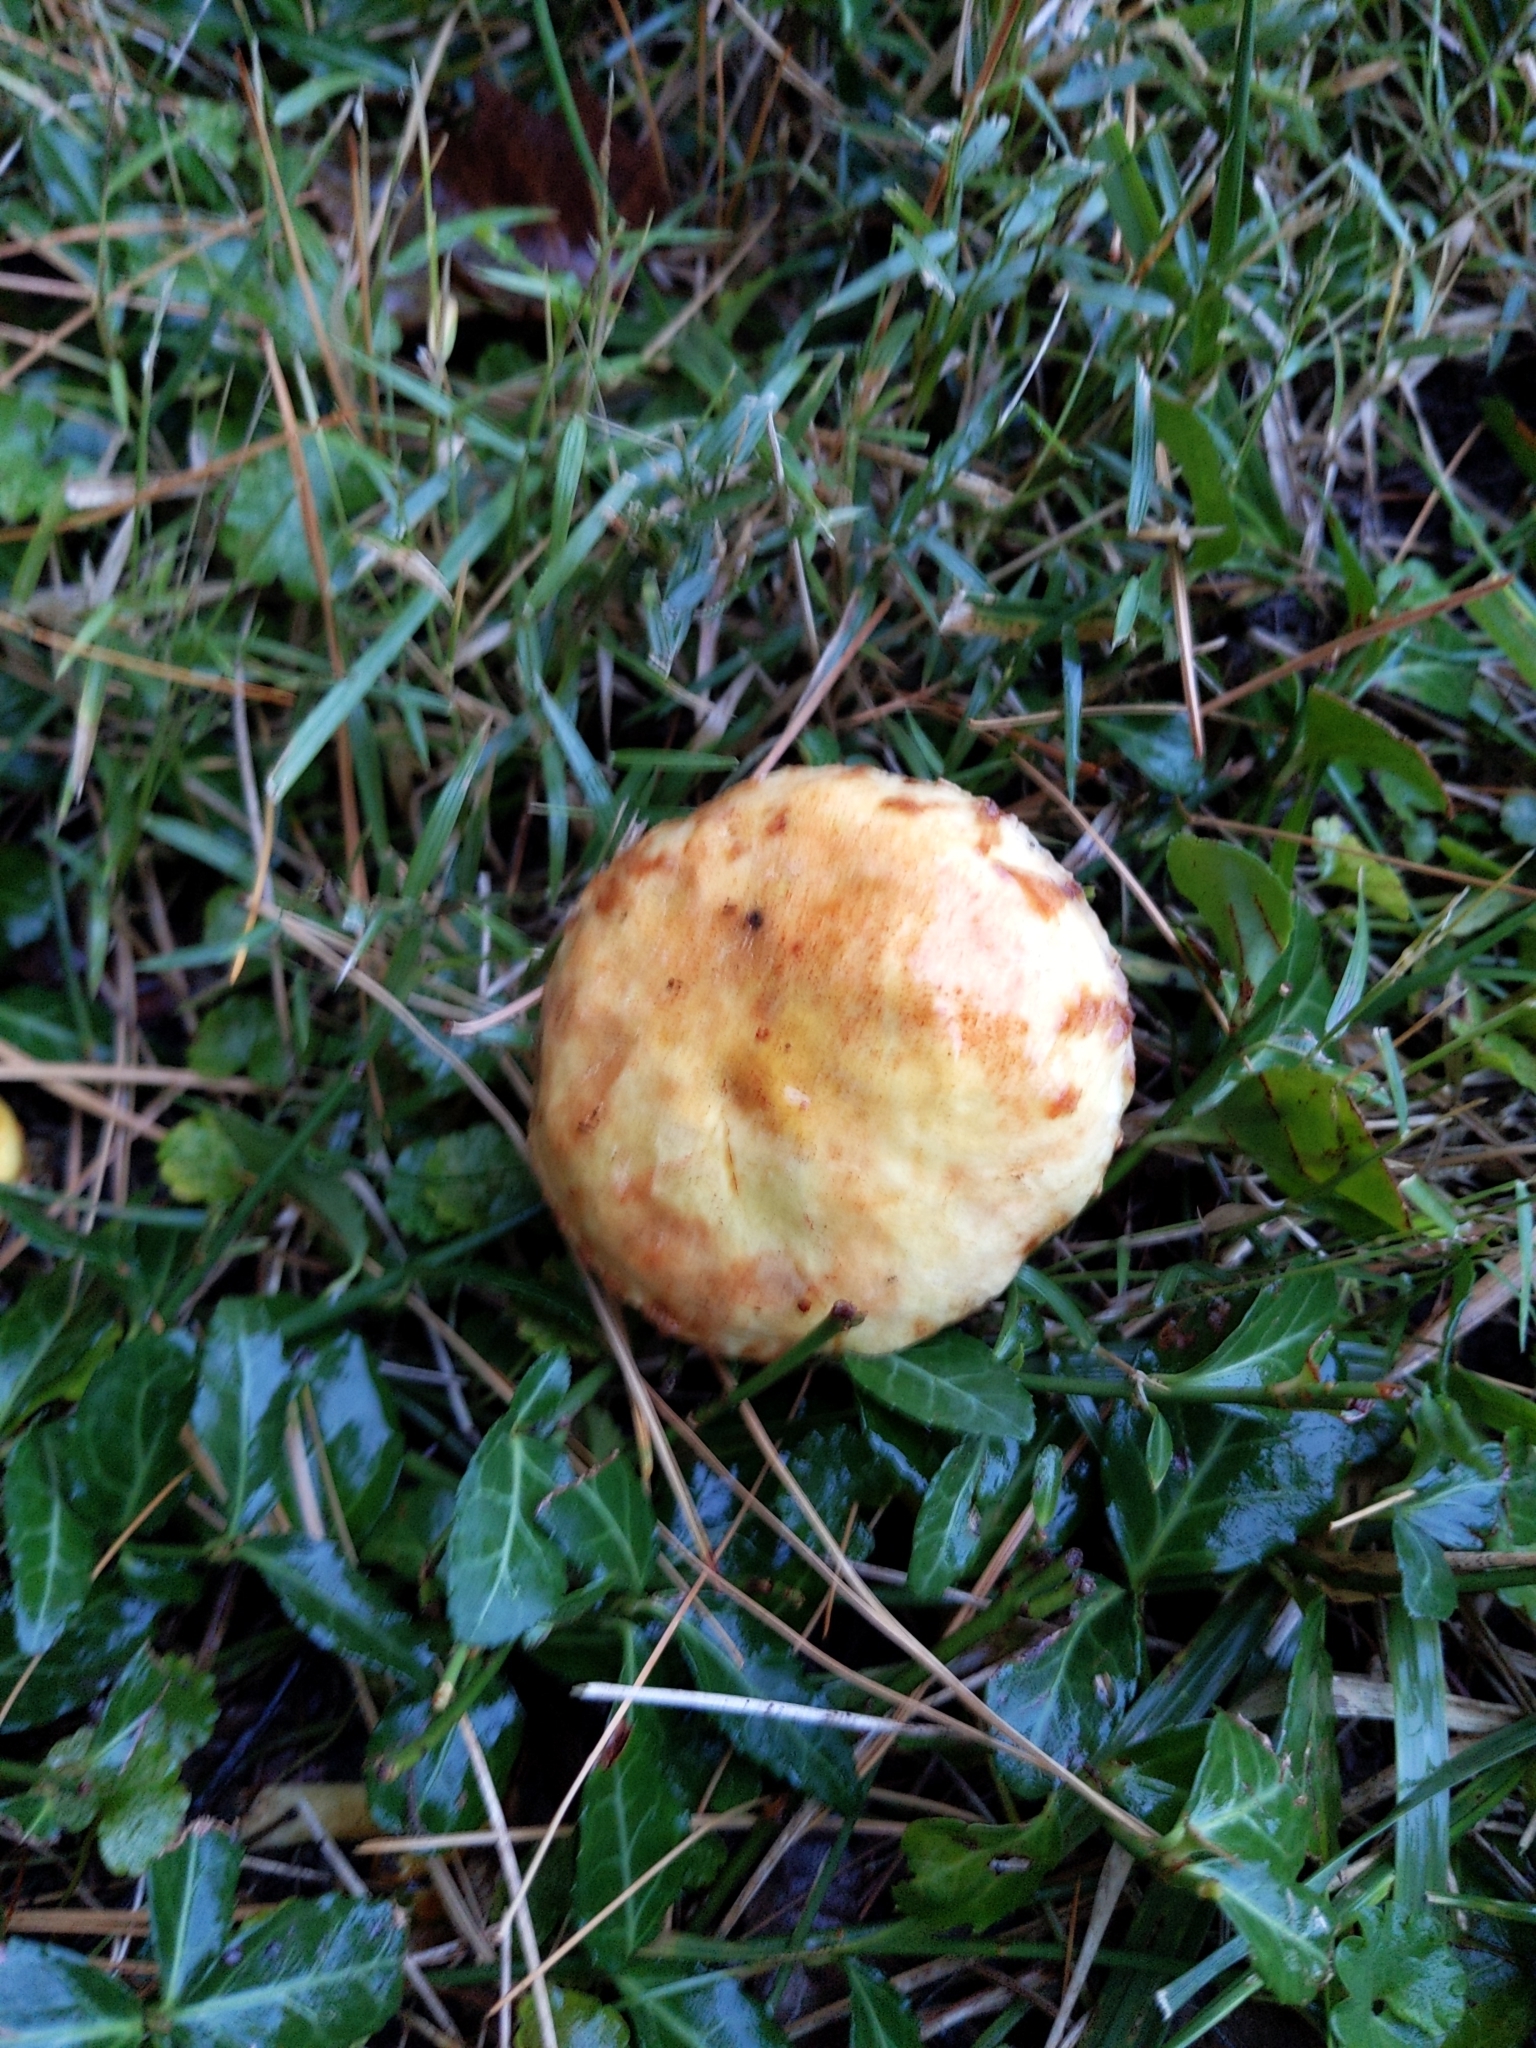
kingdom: Fungi
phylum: Basidiomycota
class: Agaricomycetes
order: Boletales
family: Suillaceae
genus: Suillus
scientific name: Suillus americanus
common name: Chicken fat mushroom
